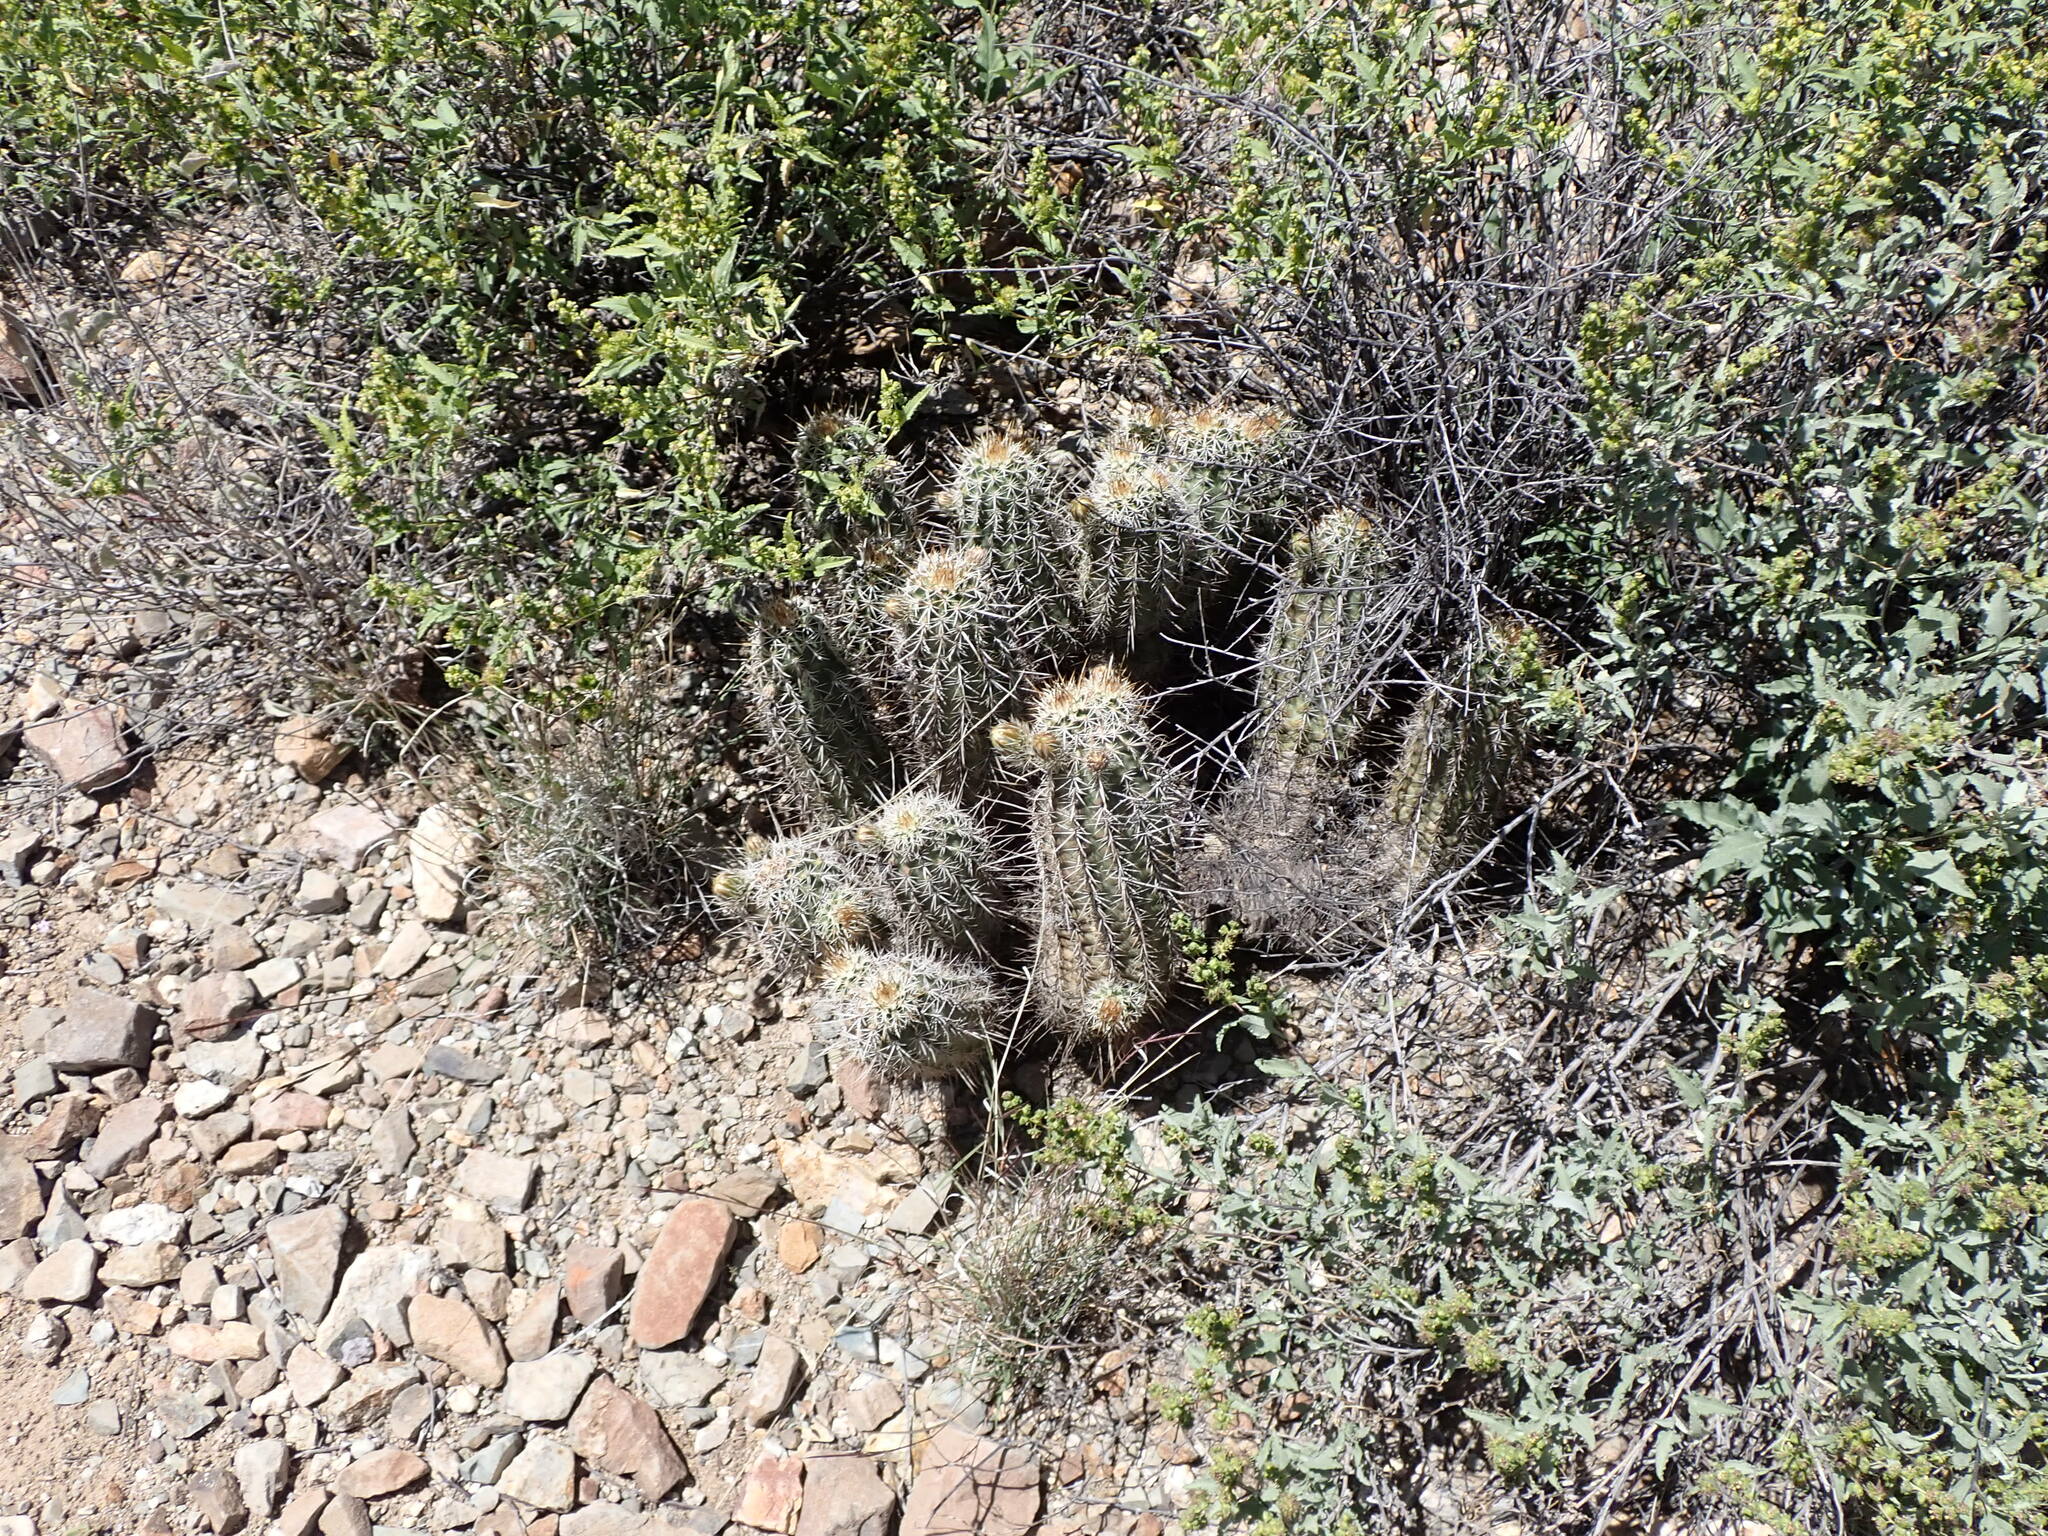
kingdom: Plantae
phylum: Tracheophyta
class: Magnoliopsida
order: Caryophyllales
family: Cactaceae
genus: Echinocereus
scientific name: Echinocereus fasciculatus
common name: Bundle hedgehog
